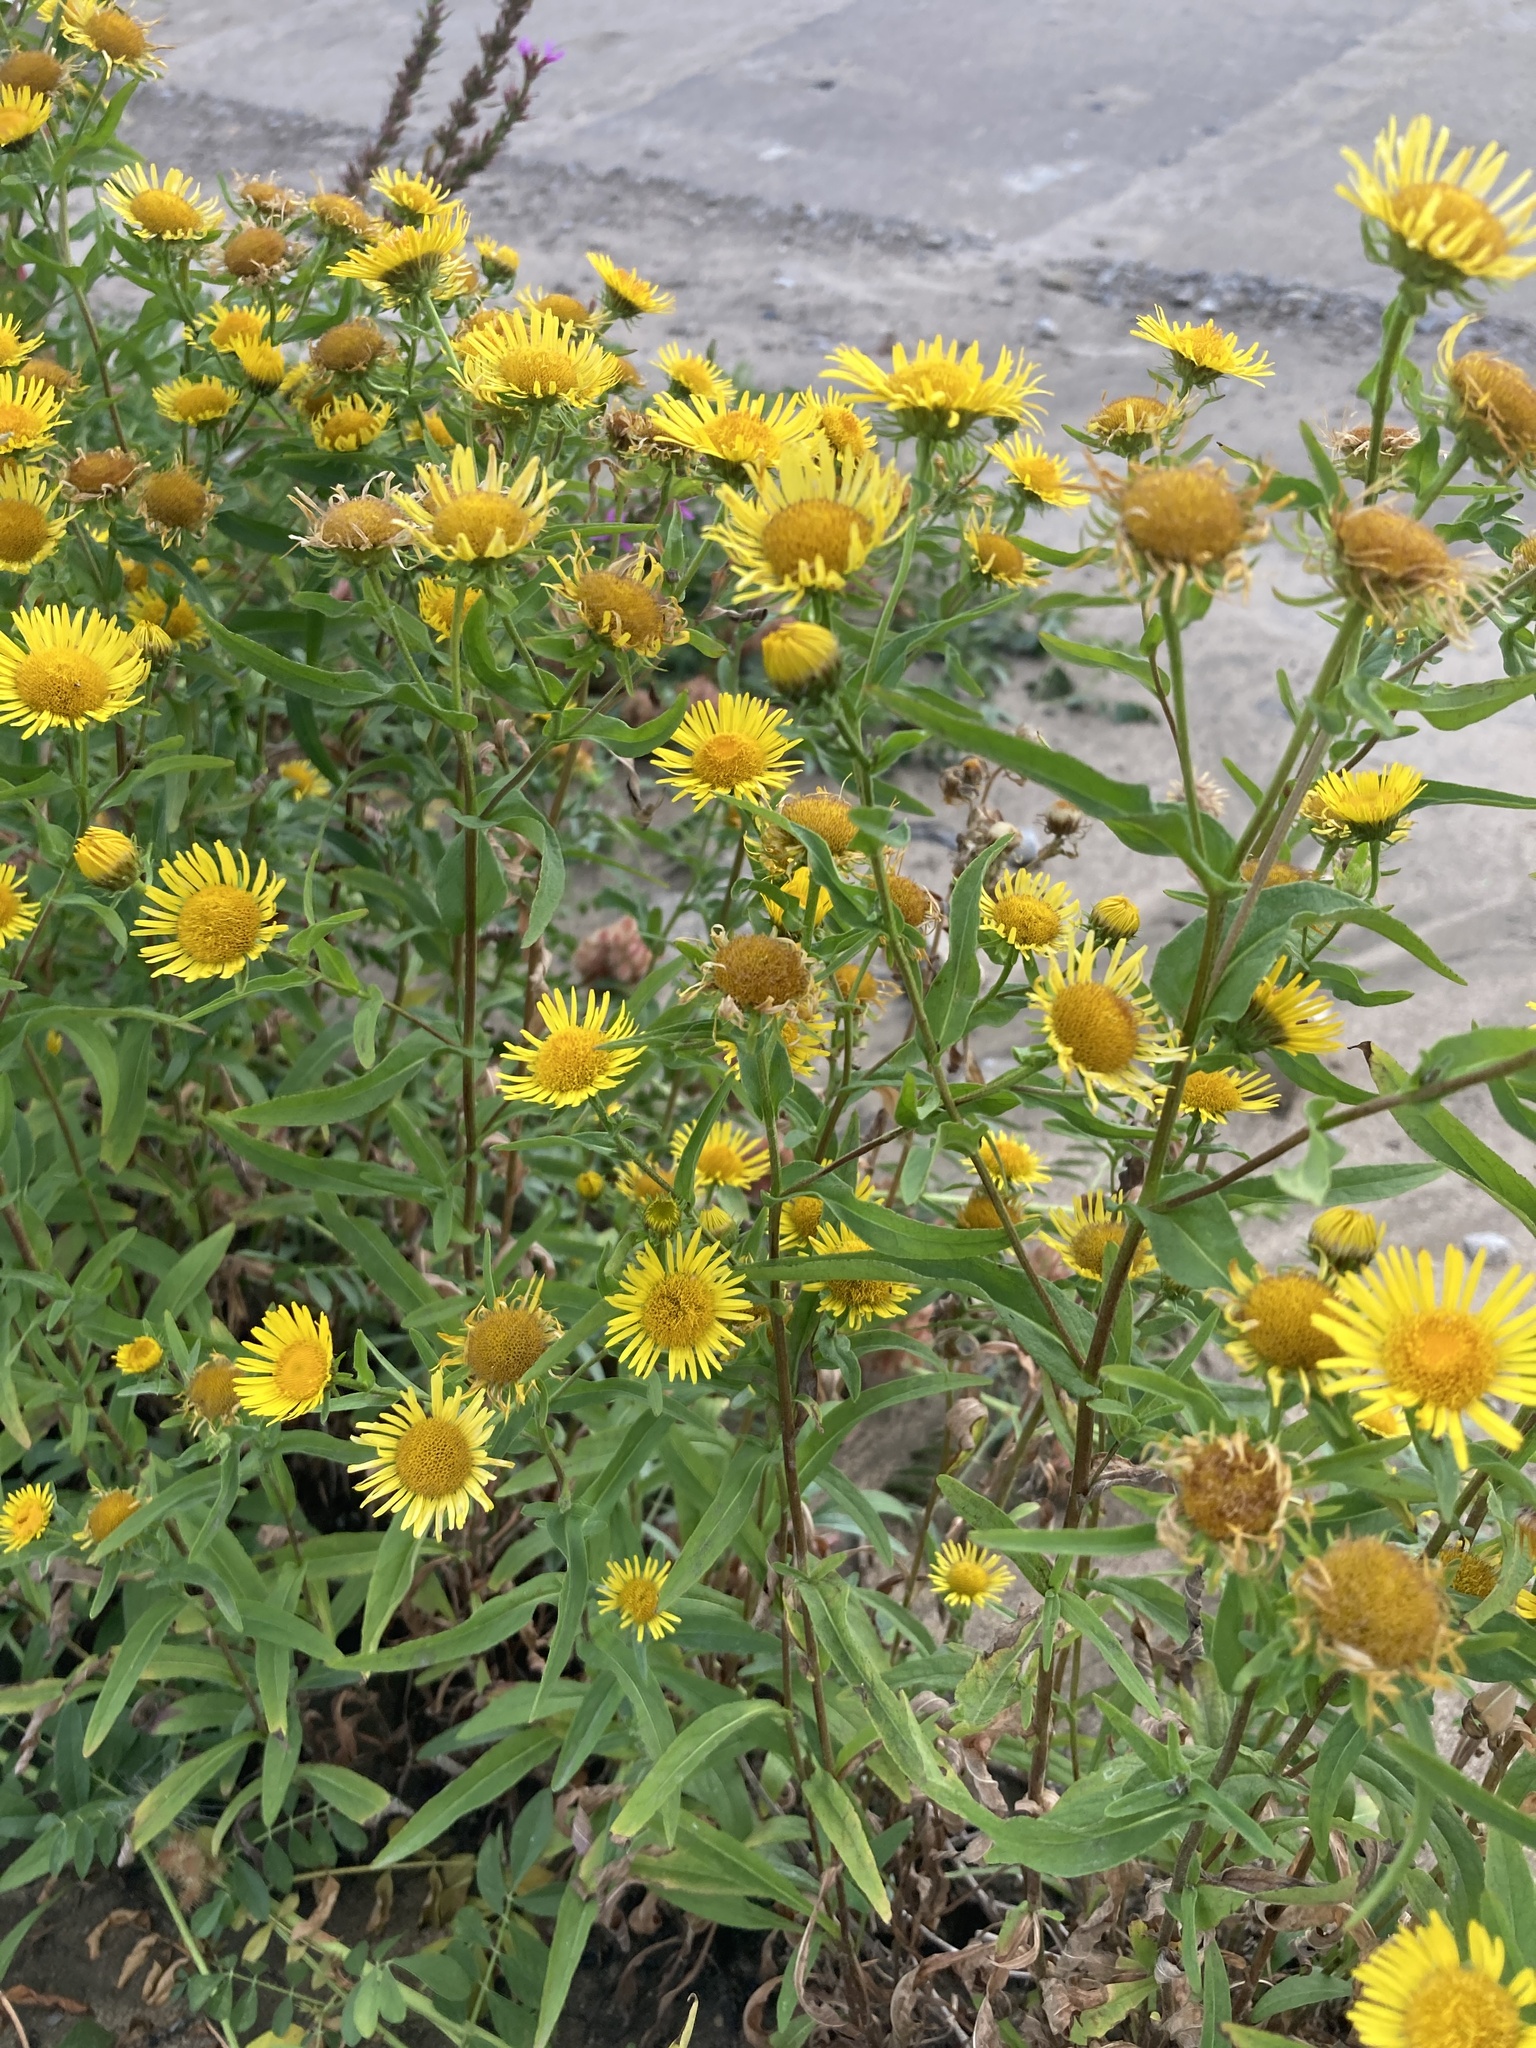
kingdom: Plantae
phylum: Tracheophyta
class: Magnoliopsida
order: Asterales
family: Asteraceae
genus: Pentanema
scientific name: Pentanema britannicum
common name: British elecampane
